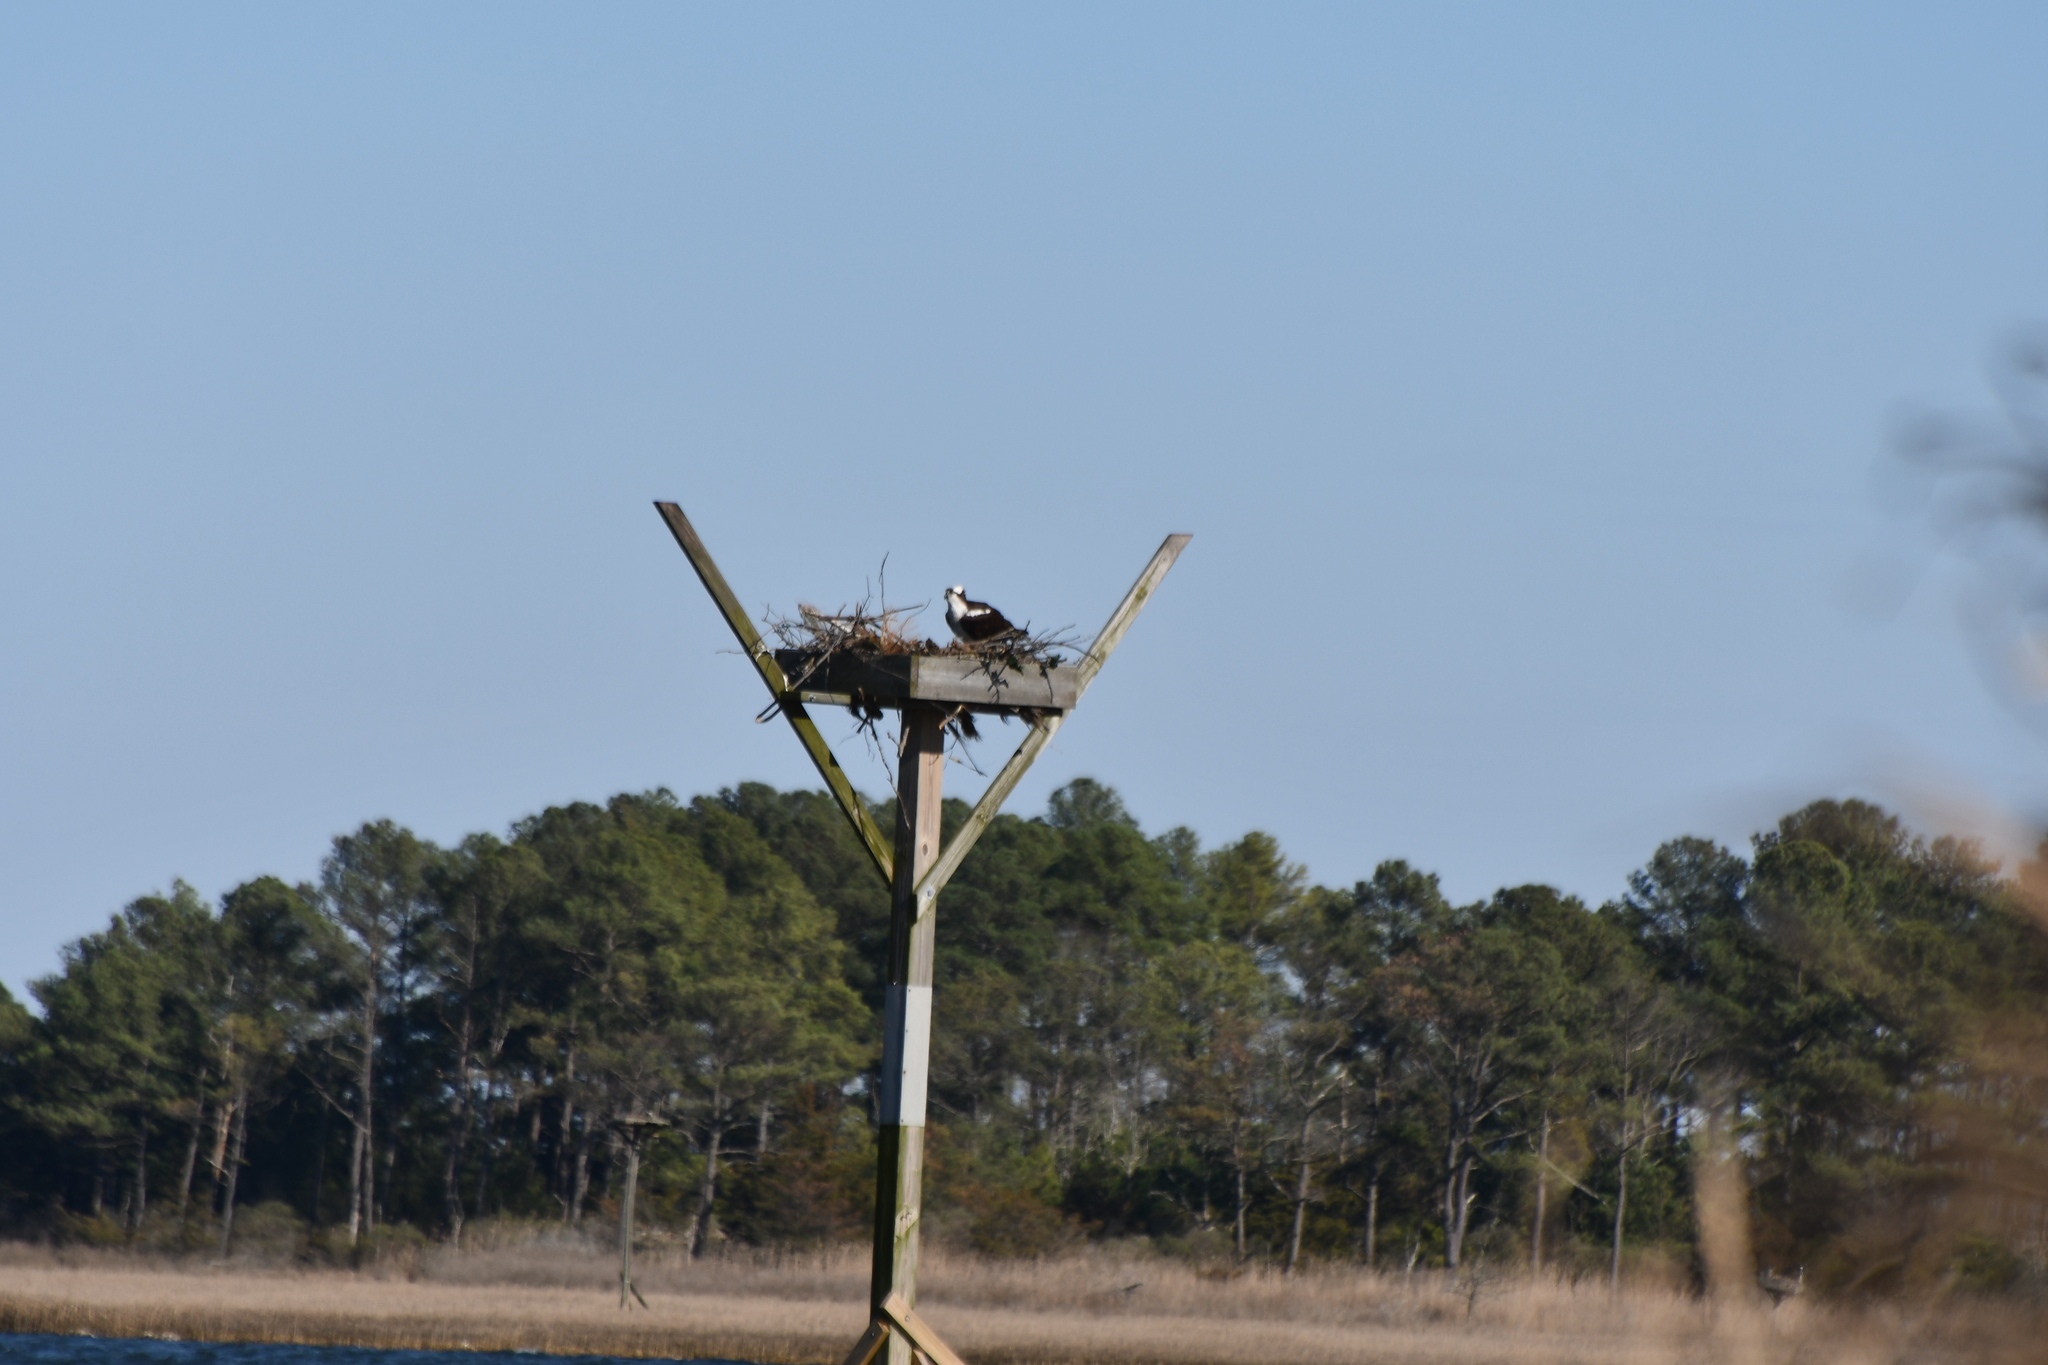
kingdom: Animalia
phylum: Chordata
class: Aves
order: Accipitriformes
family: Pandionidae
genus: Pandion
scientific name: Pandion haliaetus
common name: Osprey
